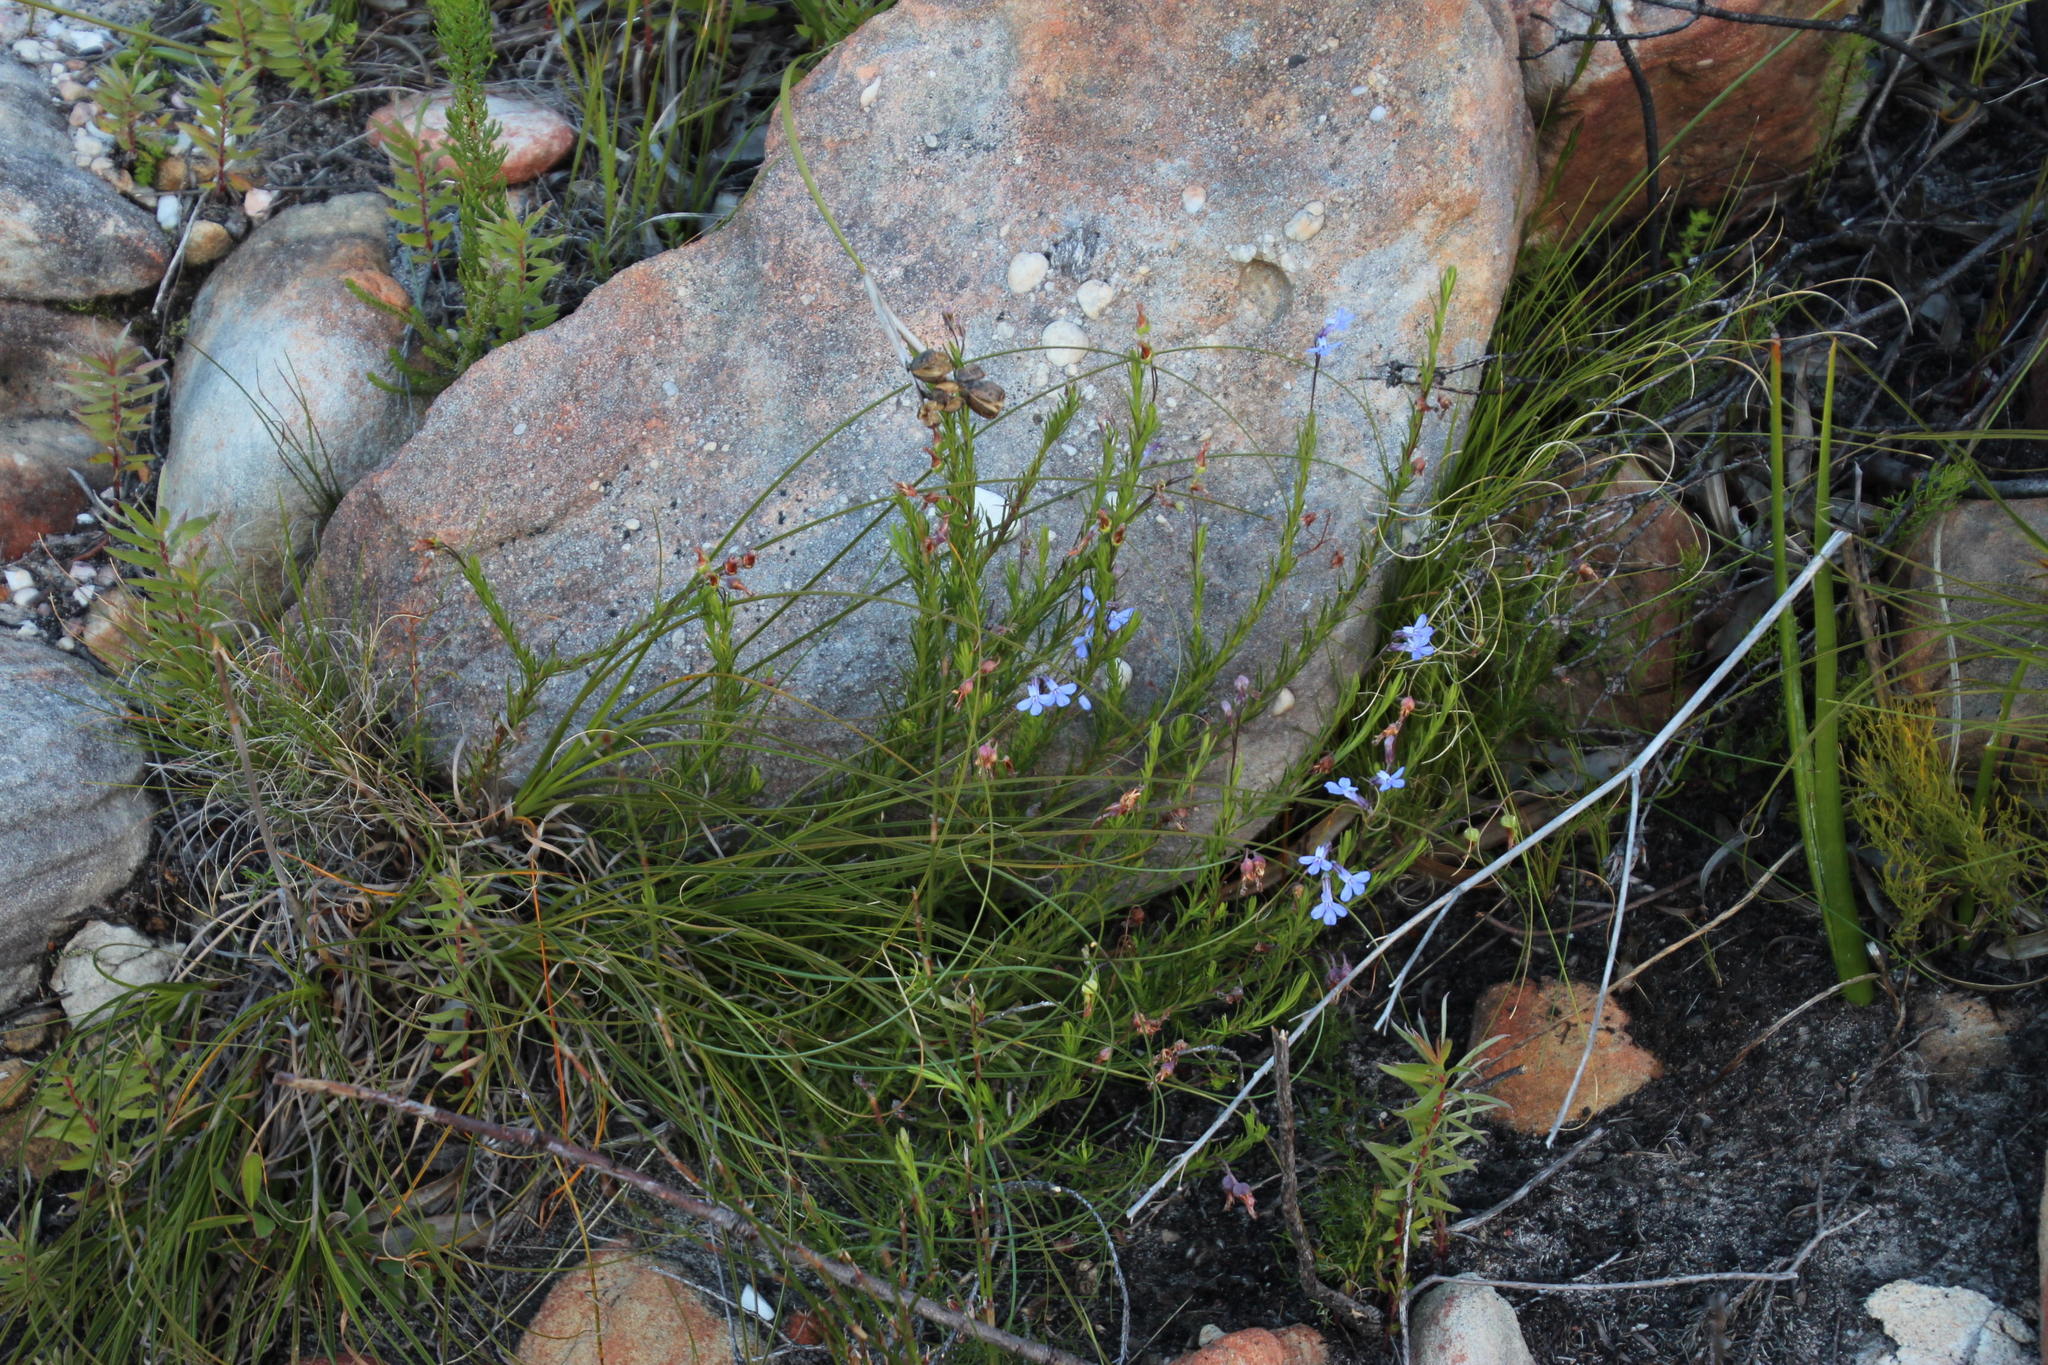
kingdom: Plantae
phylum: Tracheophyta
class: Magnoliopsida
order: Asterales
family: Campanulaceae
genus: Lobelia
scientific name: Lobelia pinifolia
